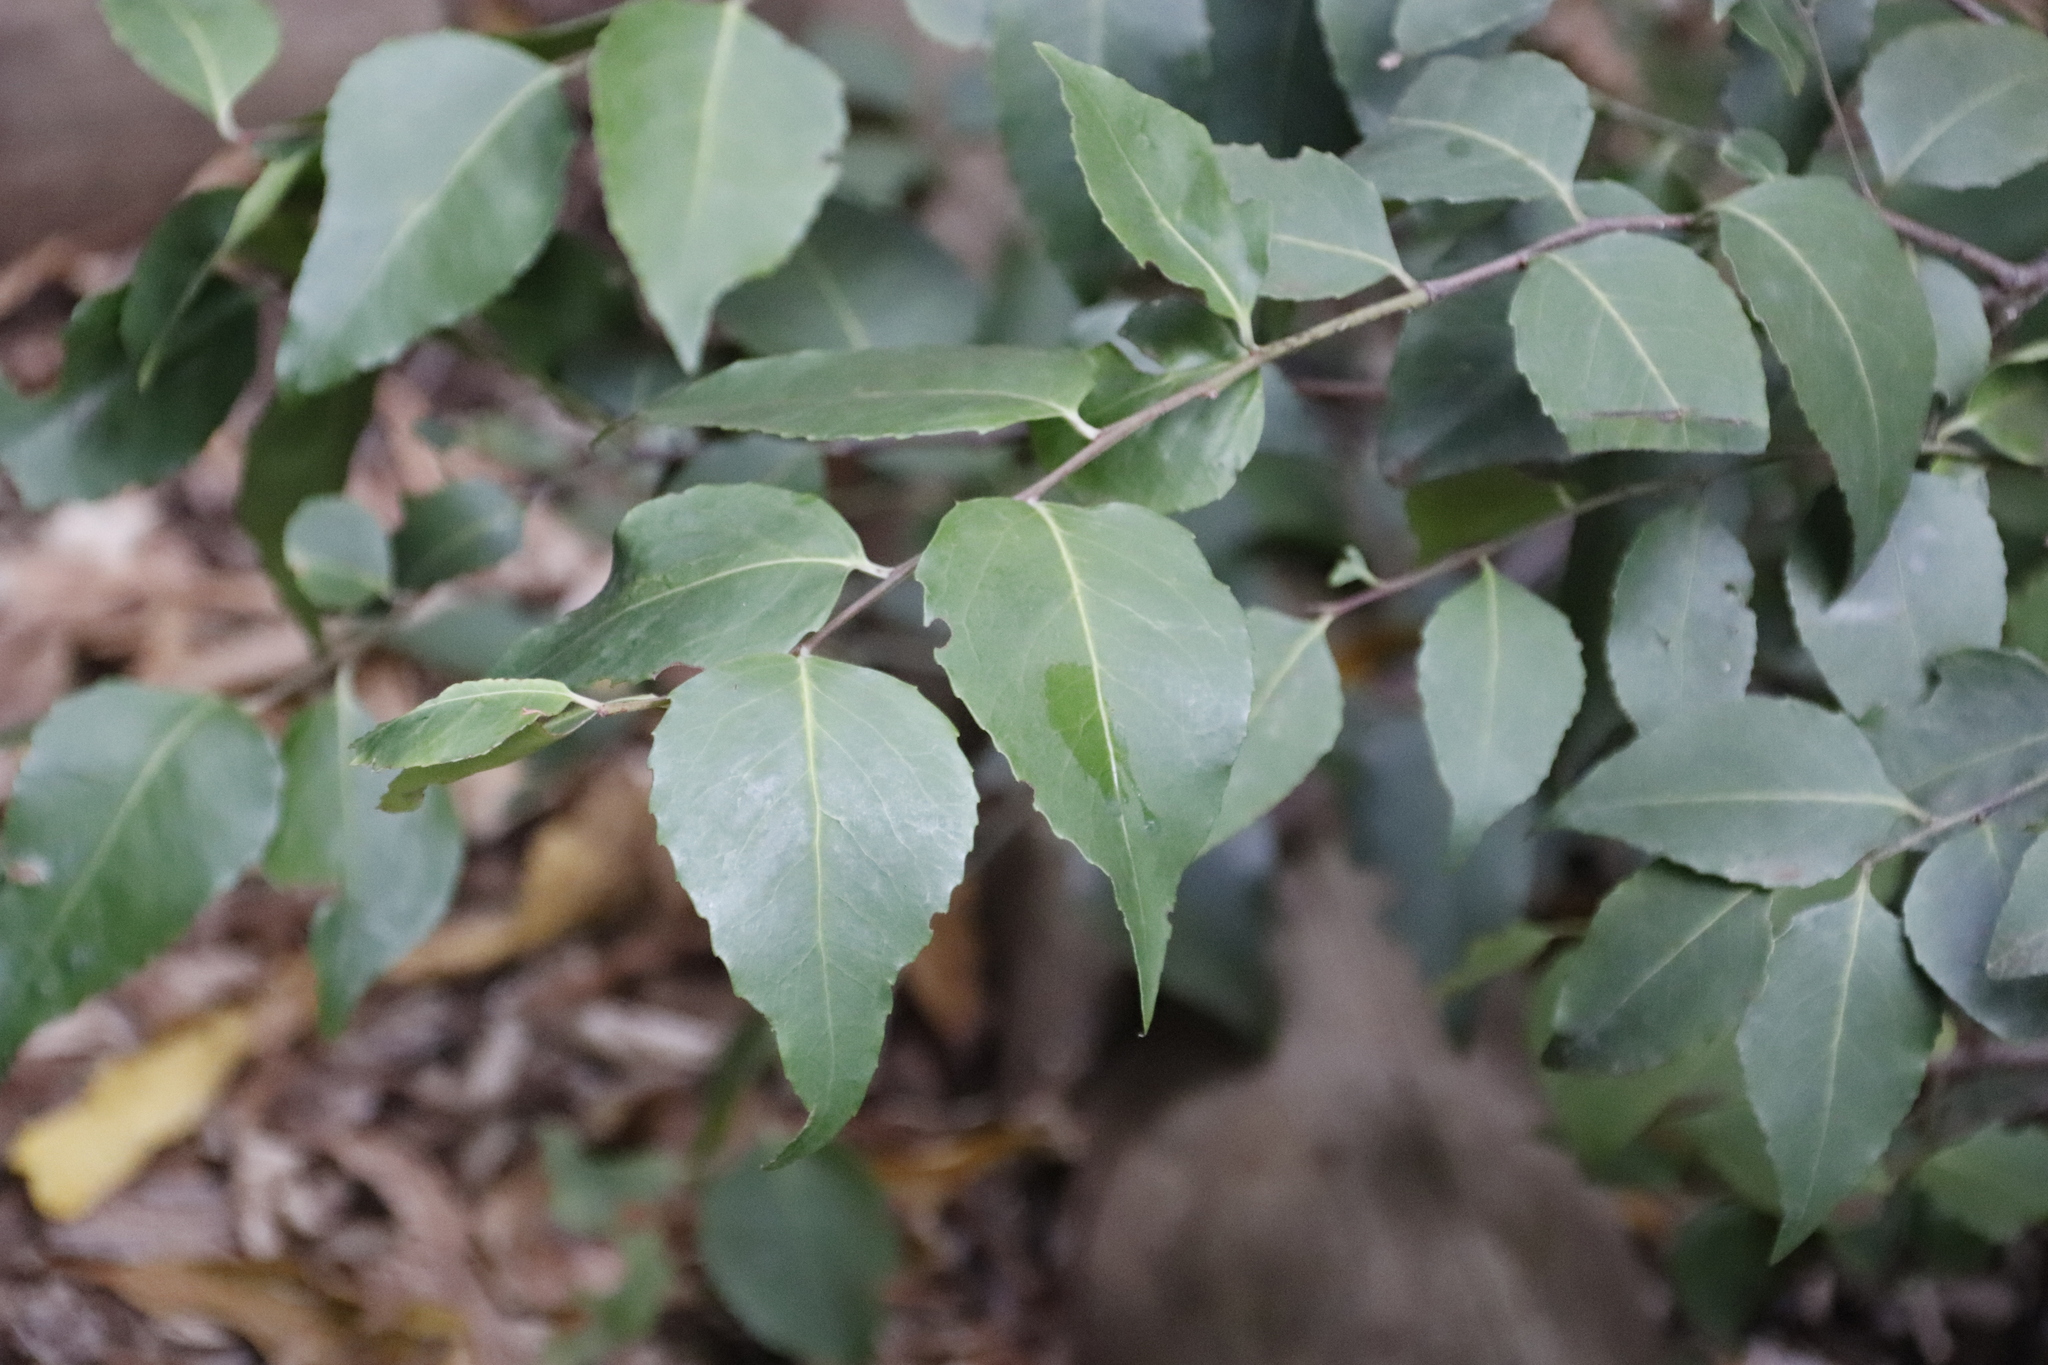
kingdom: Plantae
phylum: Tracheophyta
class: Magnoliopsida
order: Celastrales
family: Celastraceae
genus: Gymnosporia
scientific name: Gymnosporia acuminata
